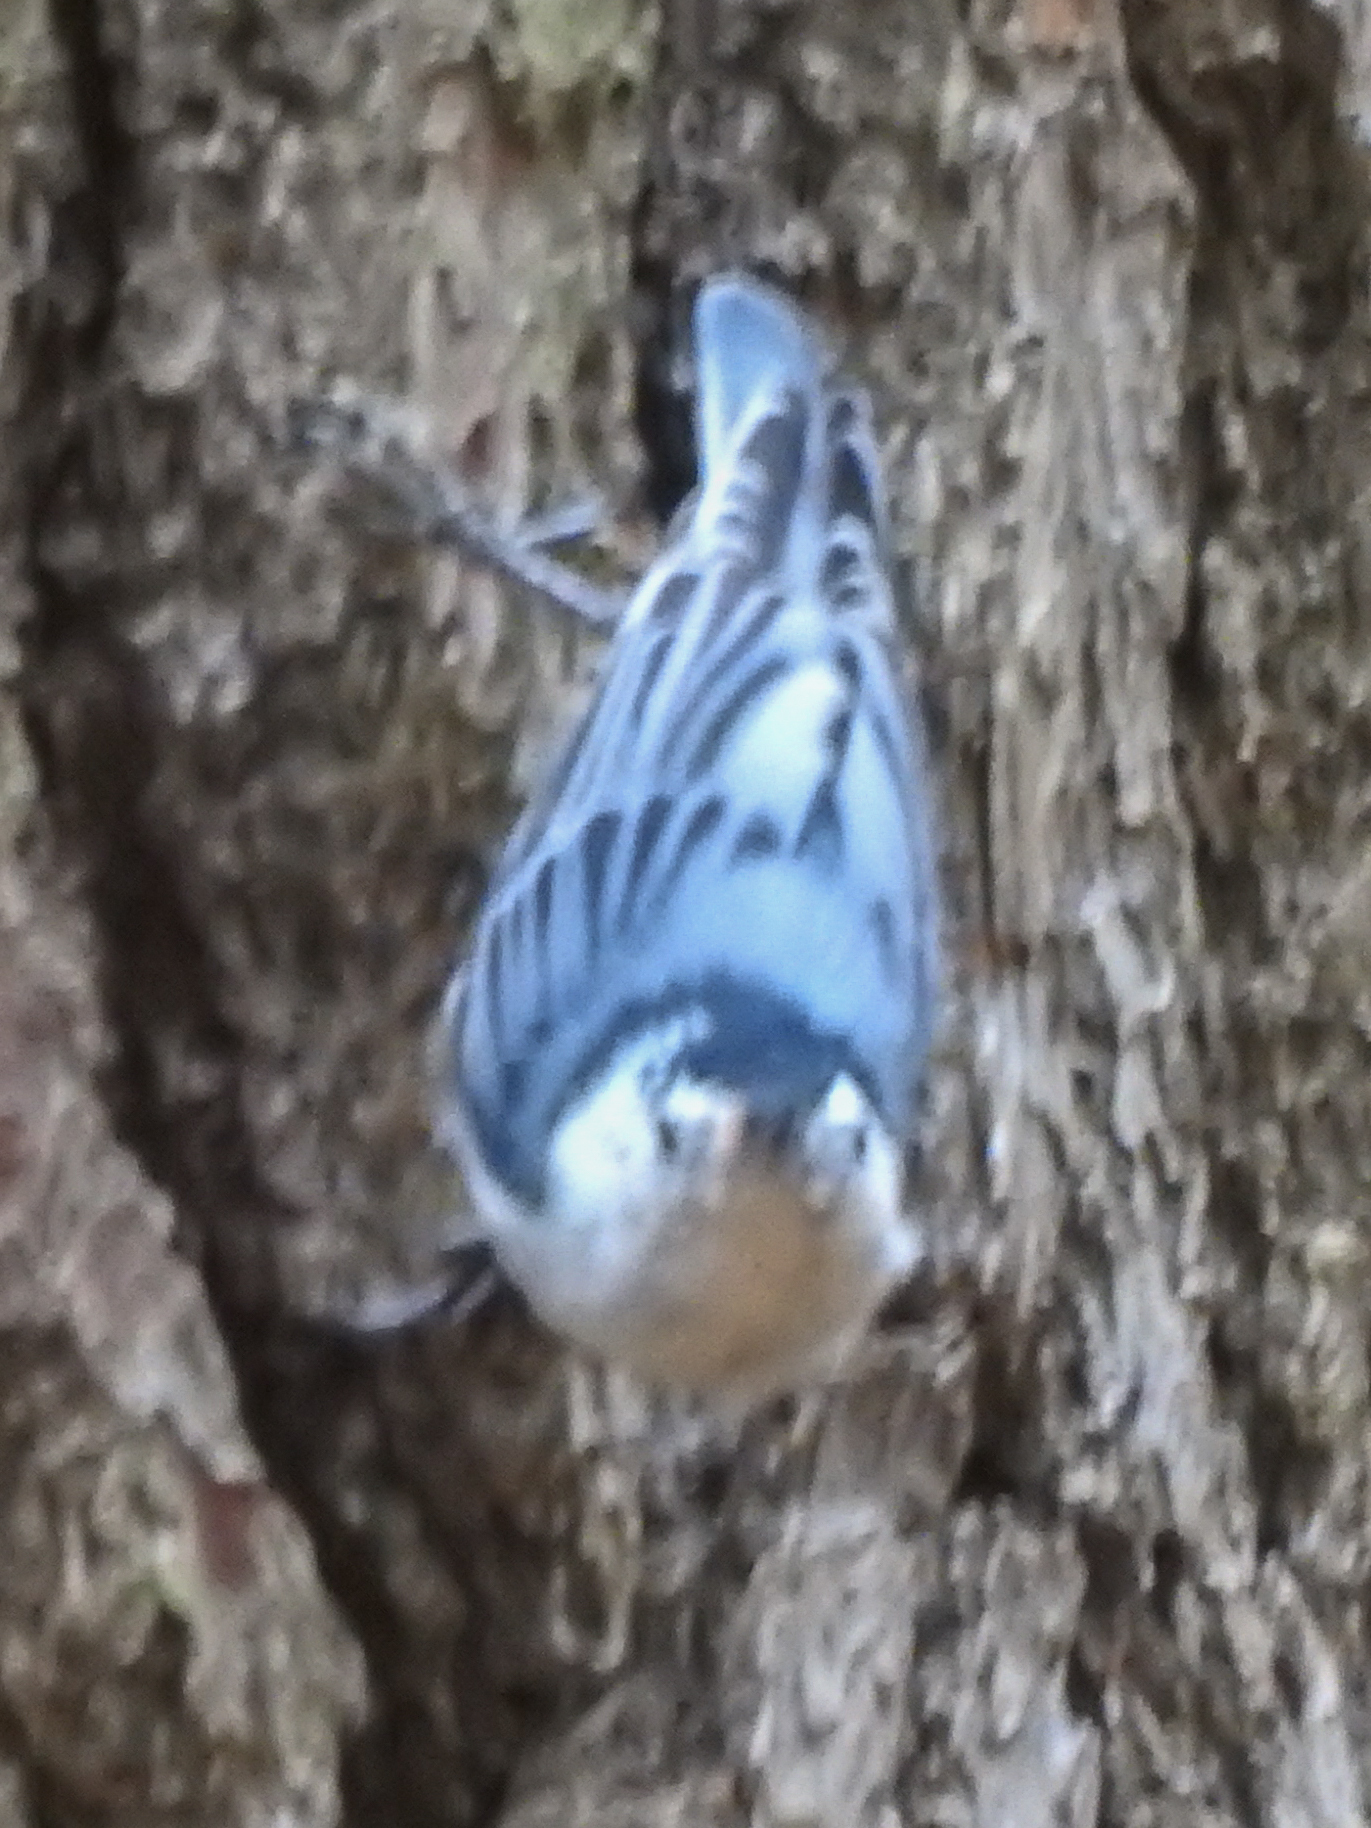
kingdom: Animalia
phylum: Chordata
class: Aves
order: Passeriformes
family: Sittidae
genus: Sitta
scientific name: Sitta carolinensis
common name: White-breasted nuthatch
